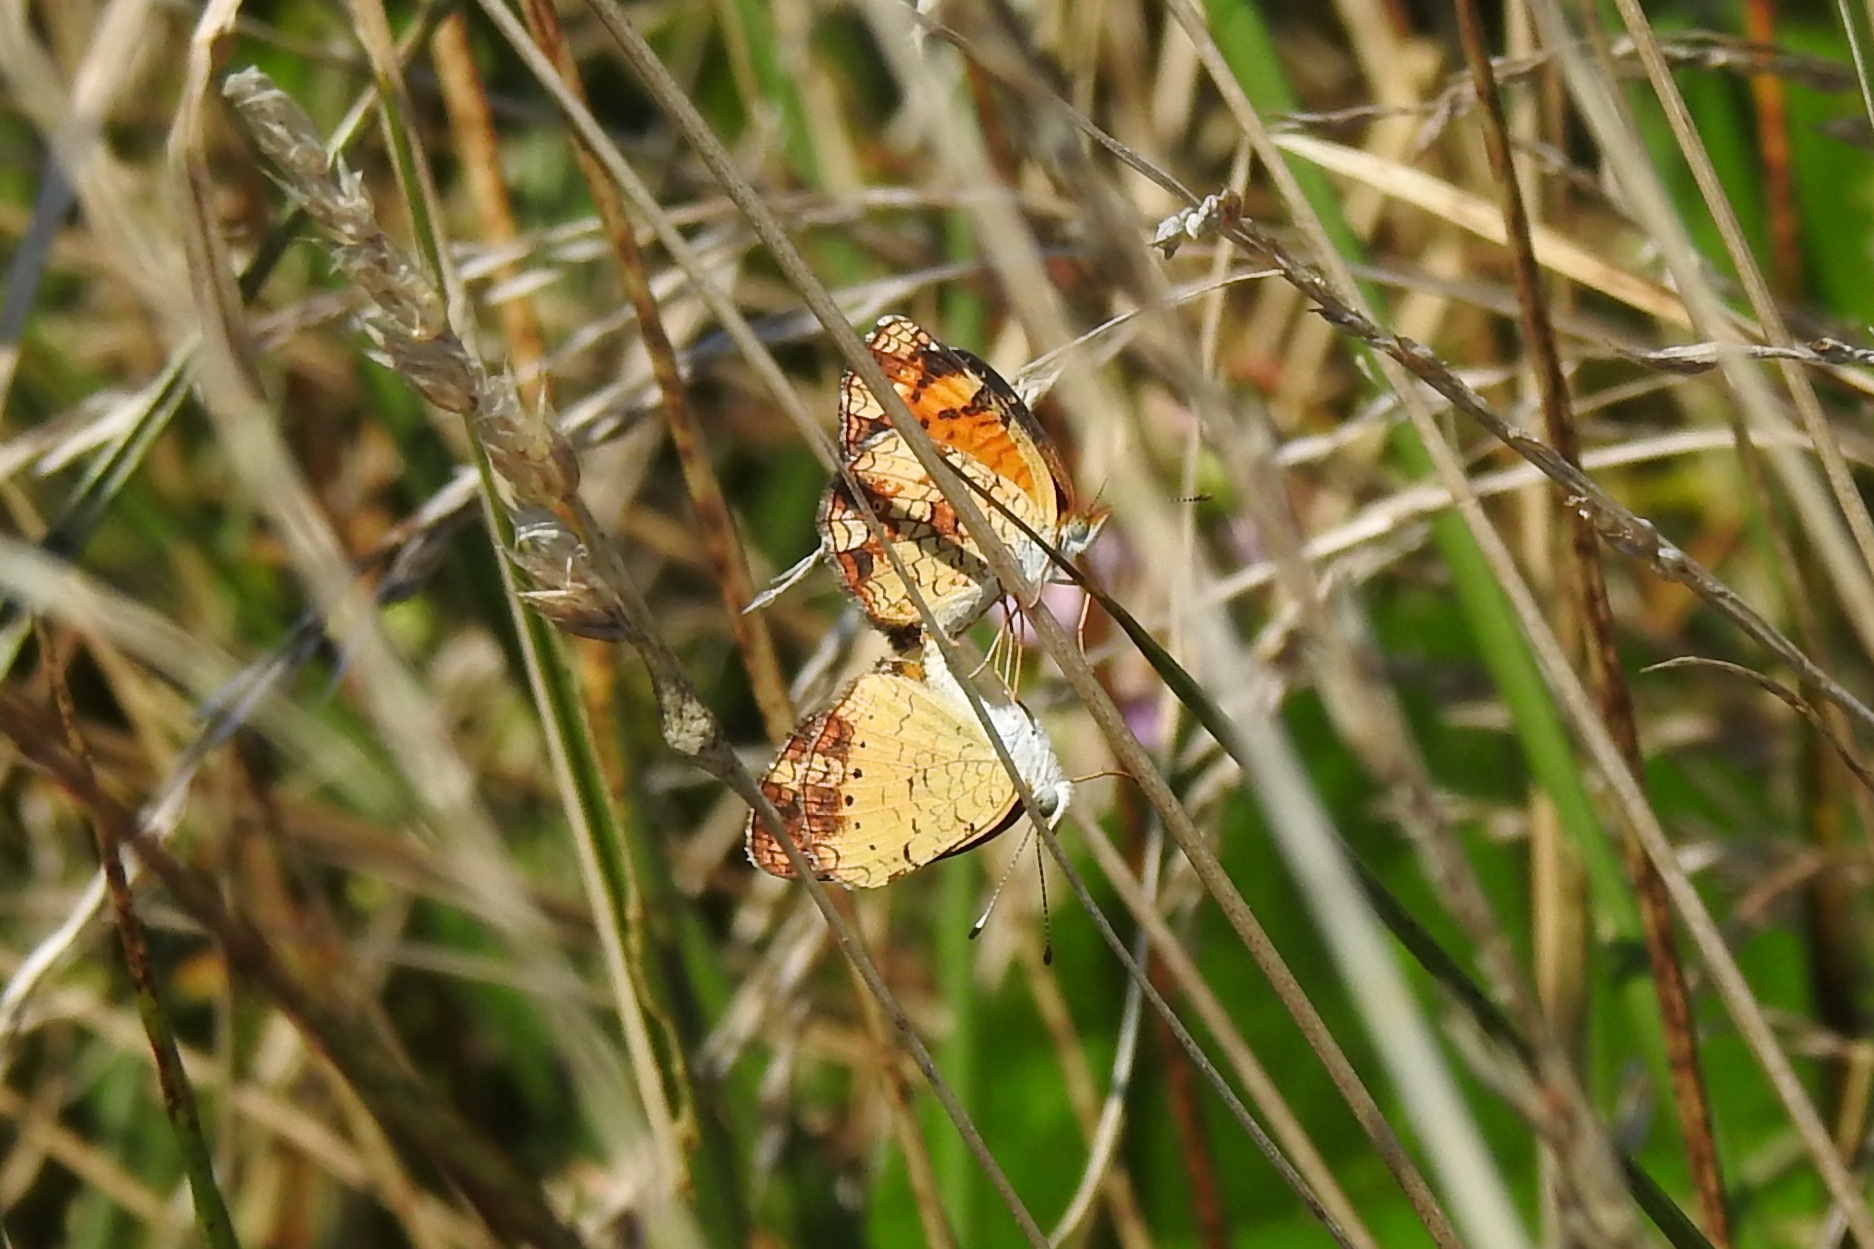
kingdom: Animalia
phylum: Arthropoda
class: Insecta
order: Lepidoptera
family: Nymphalidae
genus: Phyciodes
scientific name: Phyciodes tharos
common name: Pearl crescent
